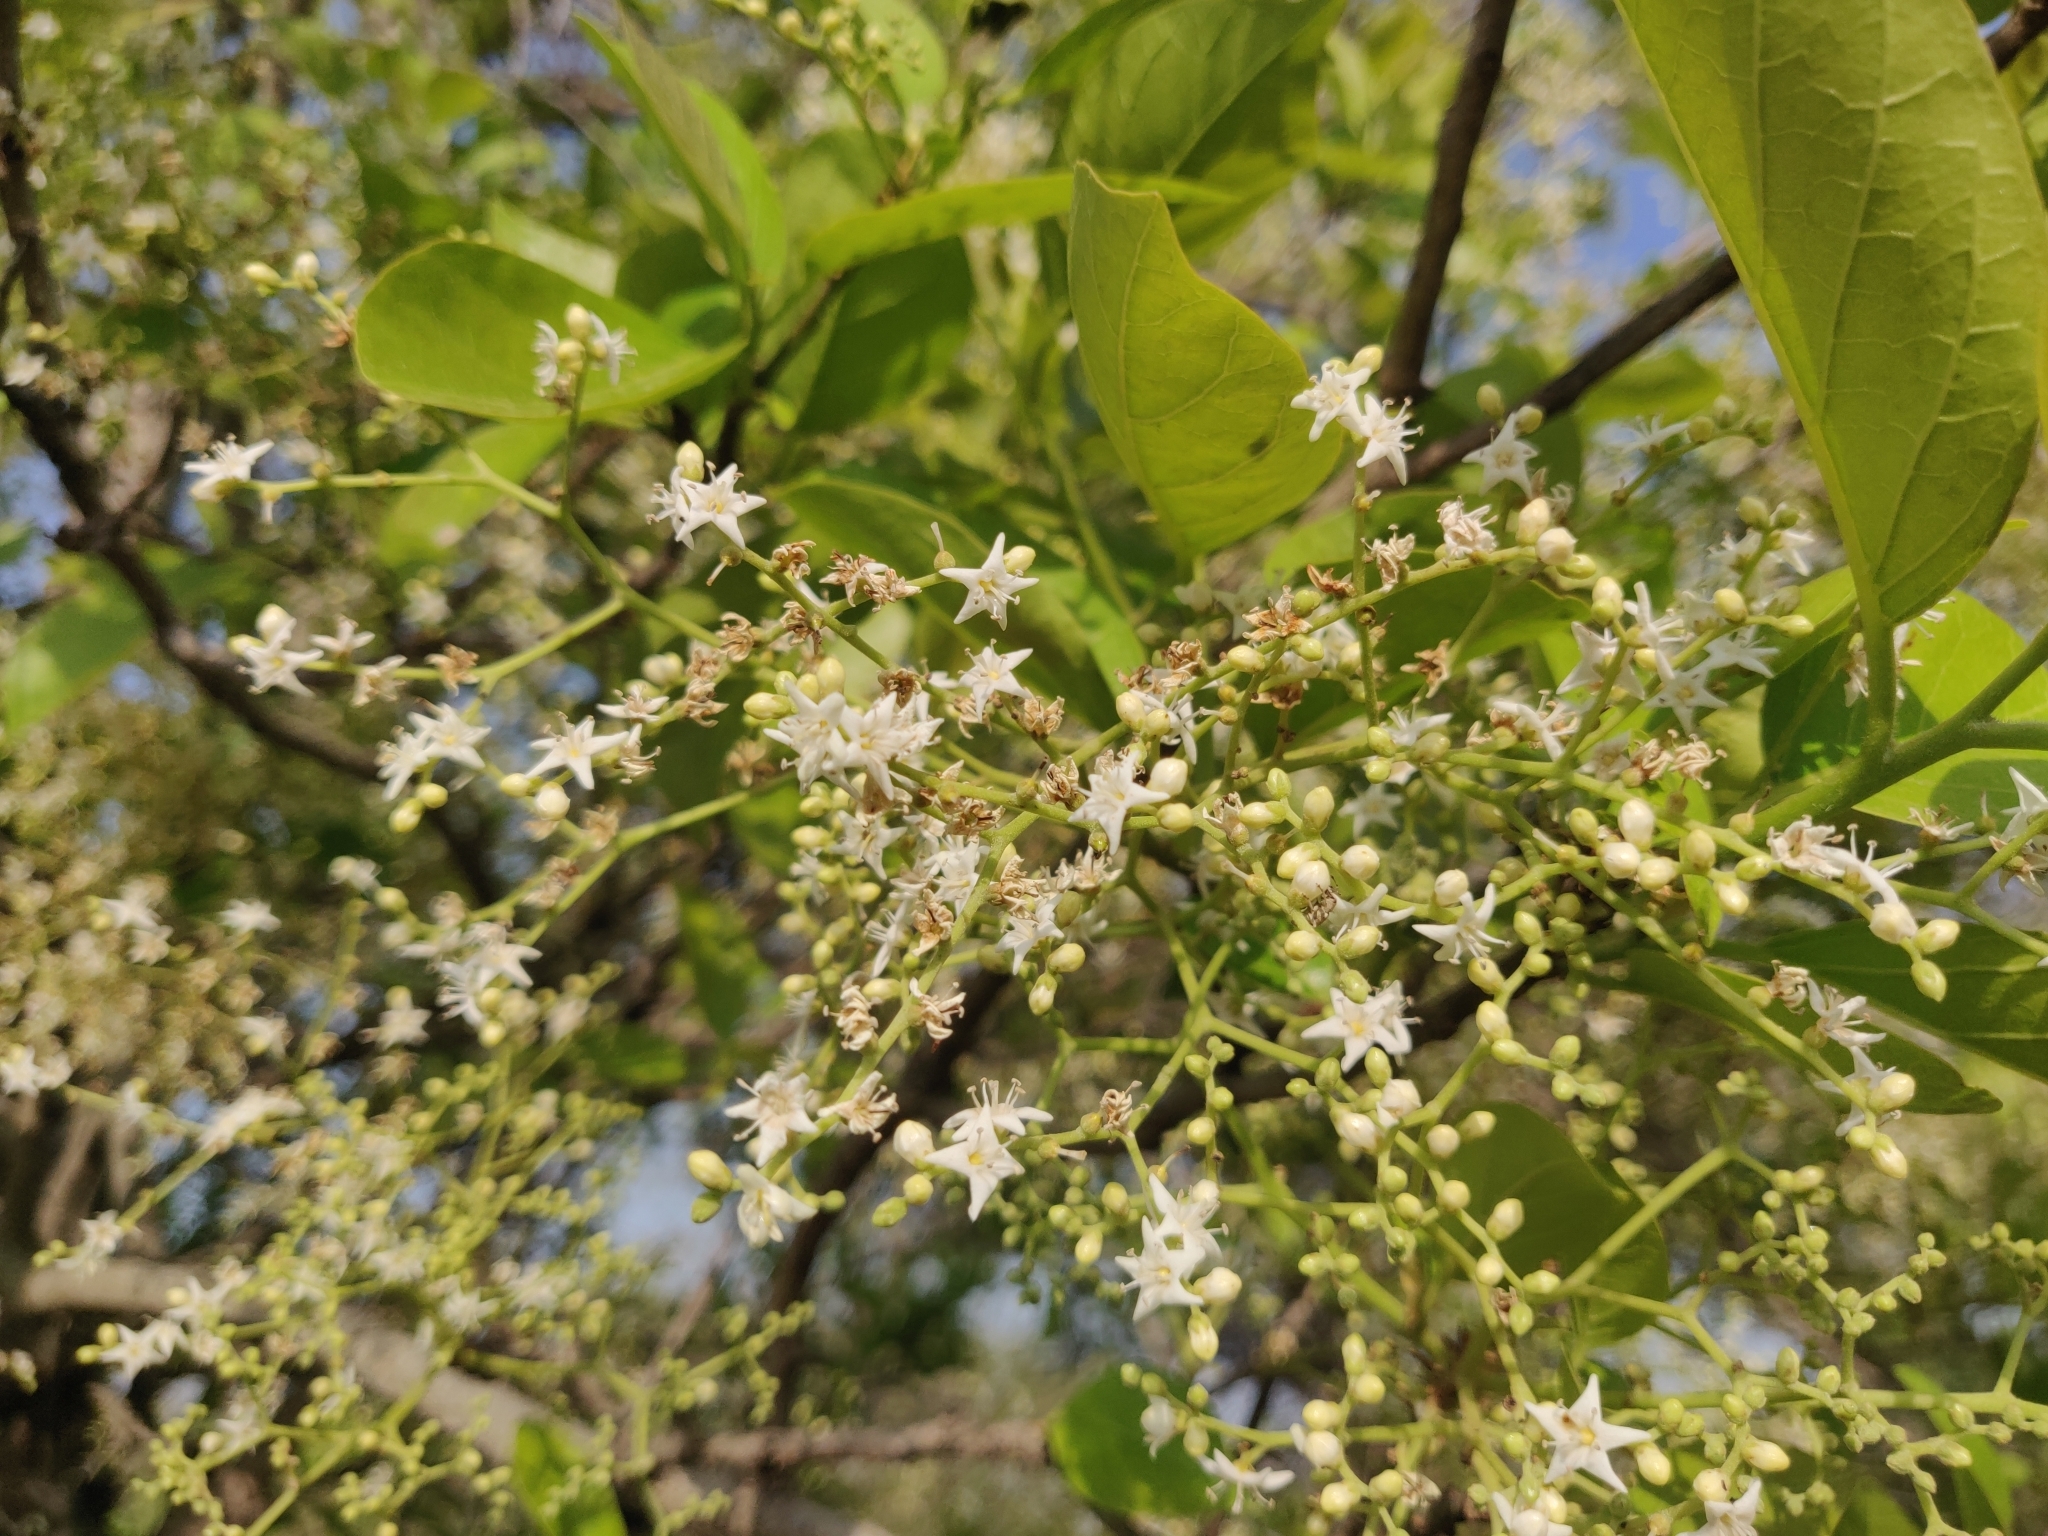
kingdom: Plantae
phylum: Tracheophyta
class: Magnoliopsida
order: Boraginales
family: Ehretiaceae
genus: Ehretia
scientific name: Ehretia laevis
